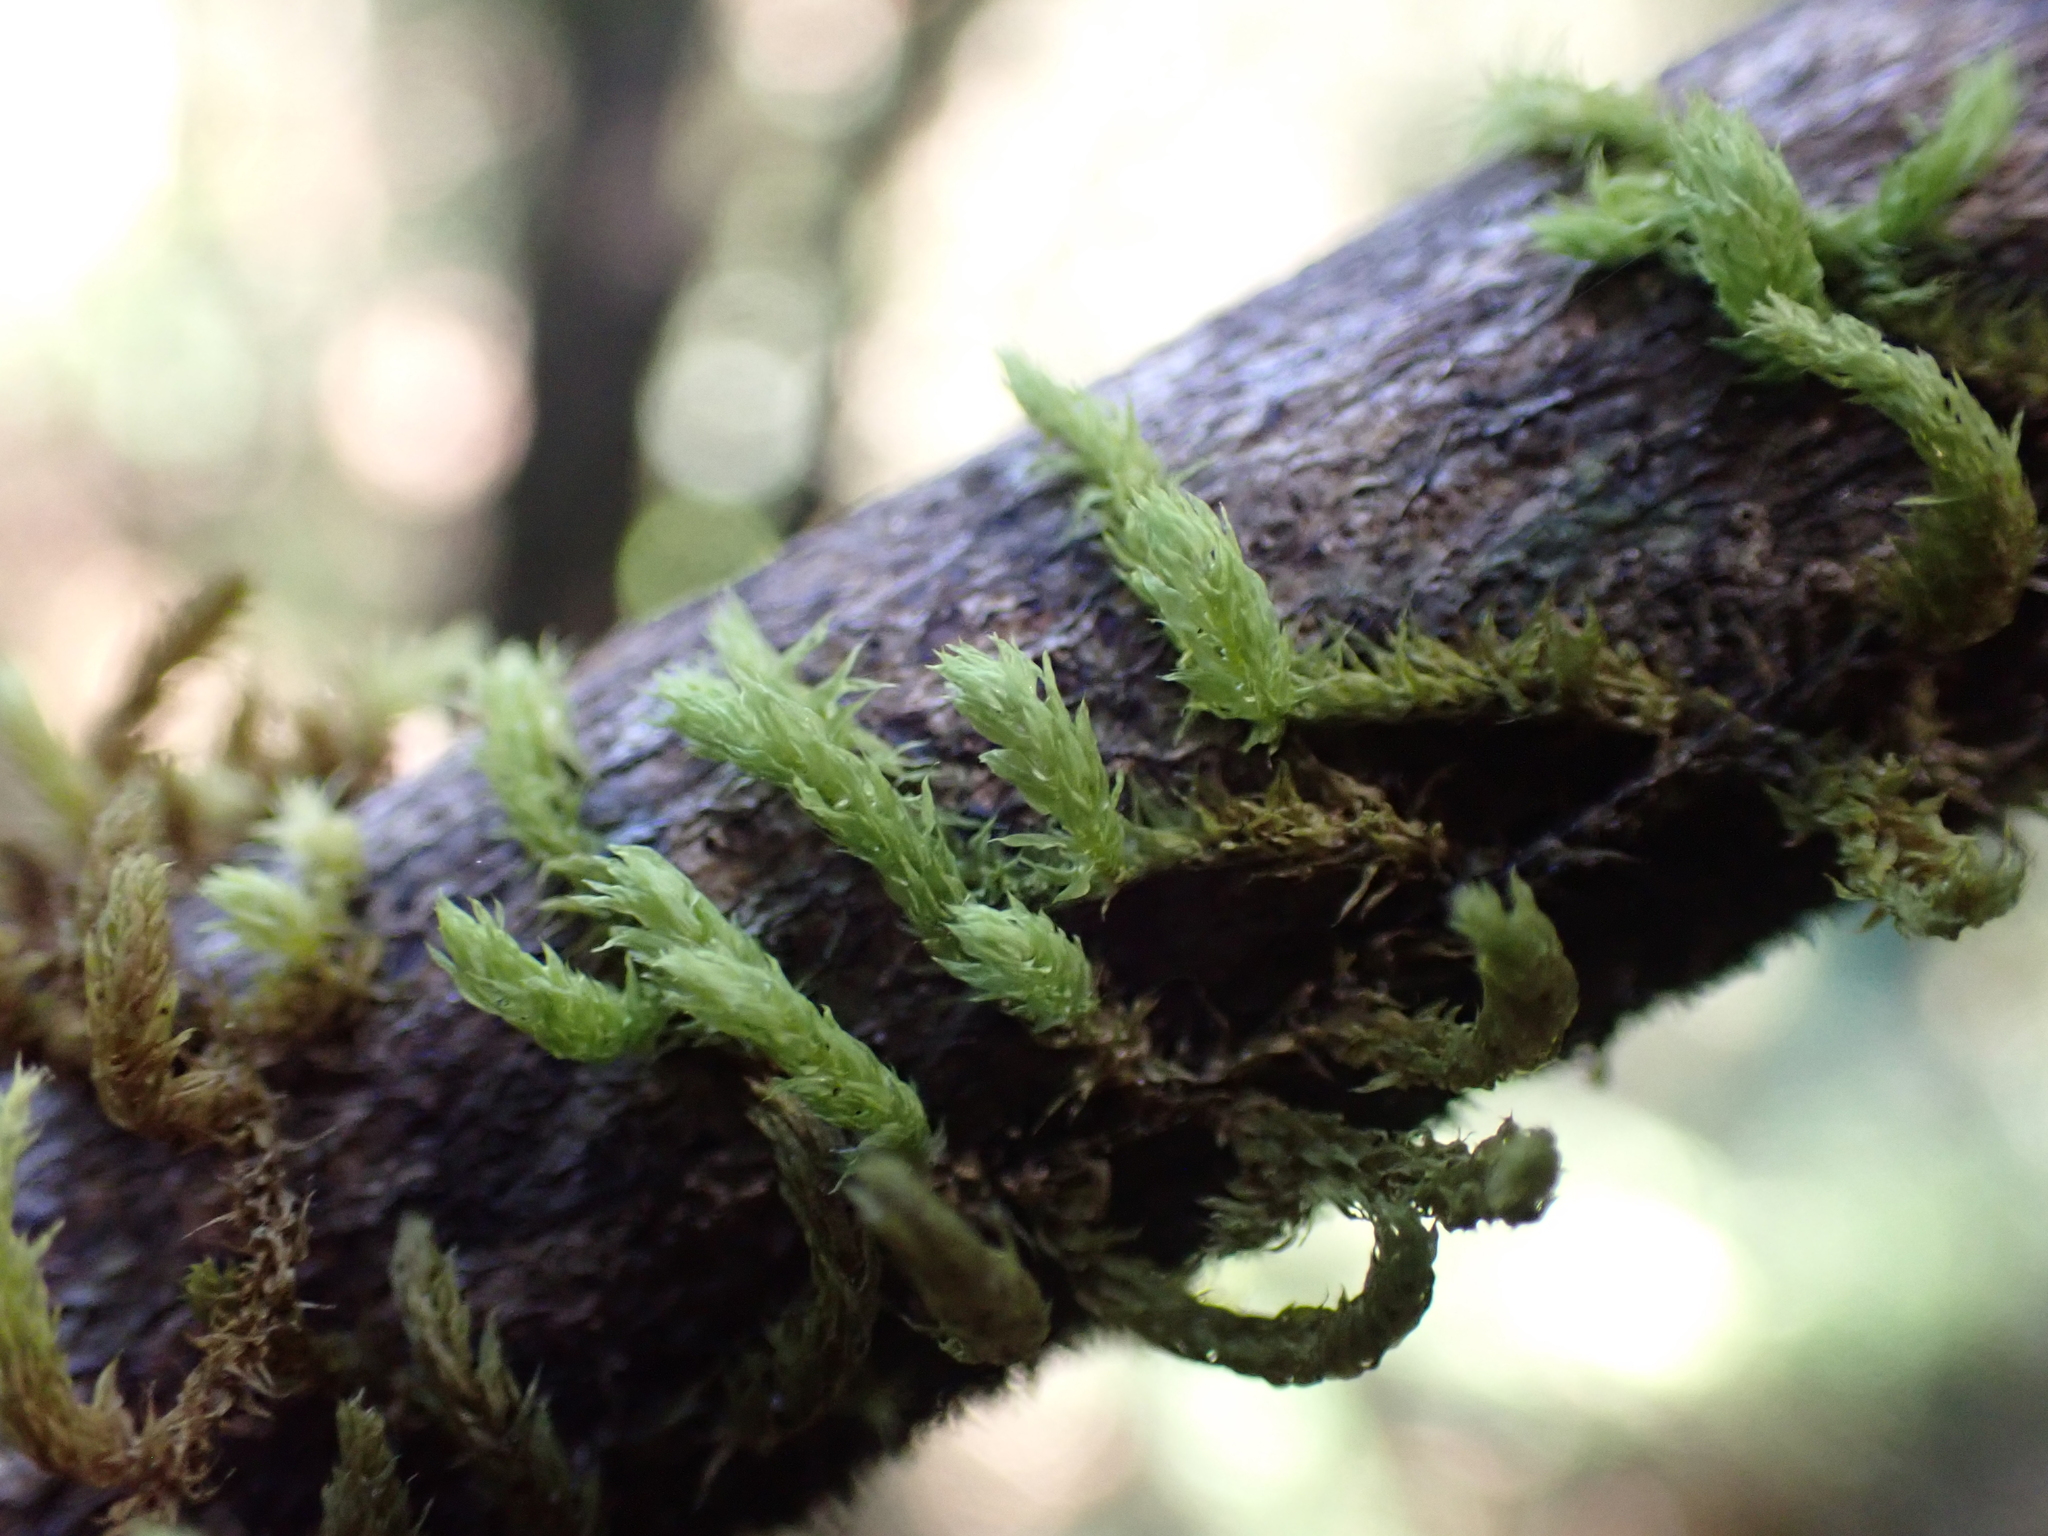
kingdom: Plantae
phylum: Bryophyta
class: Bryopsida
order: Ptychomniales
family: Ptychomniaceae
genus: Glyphothecium
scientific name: Glyphothecium sciuroides
